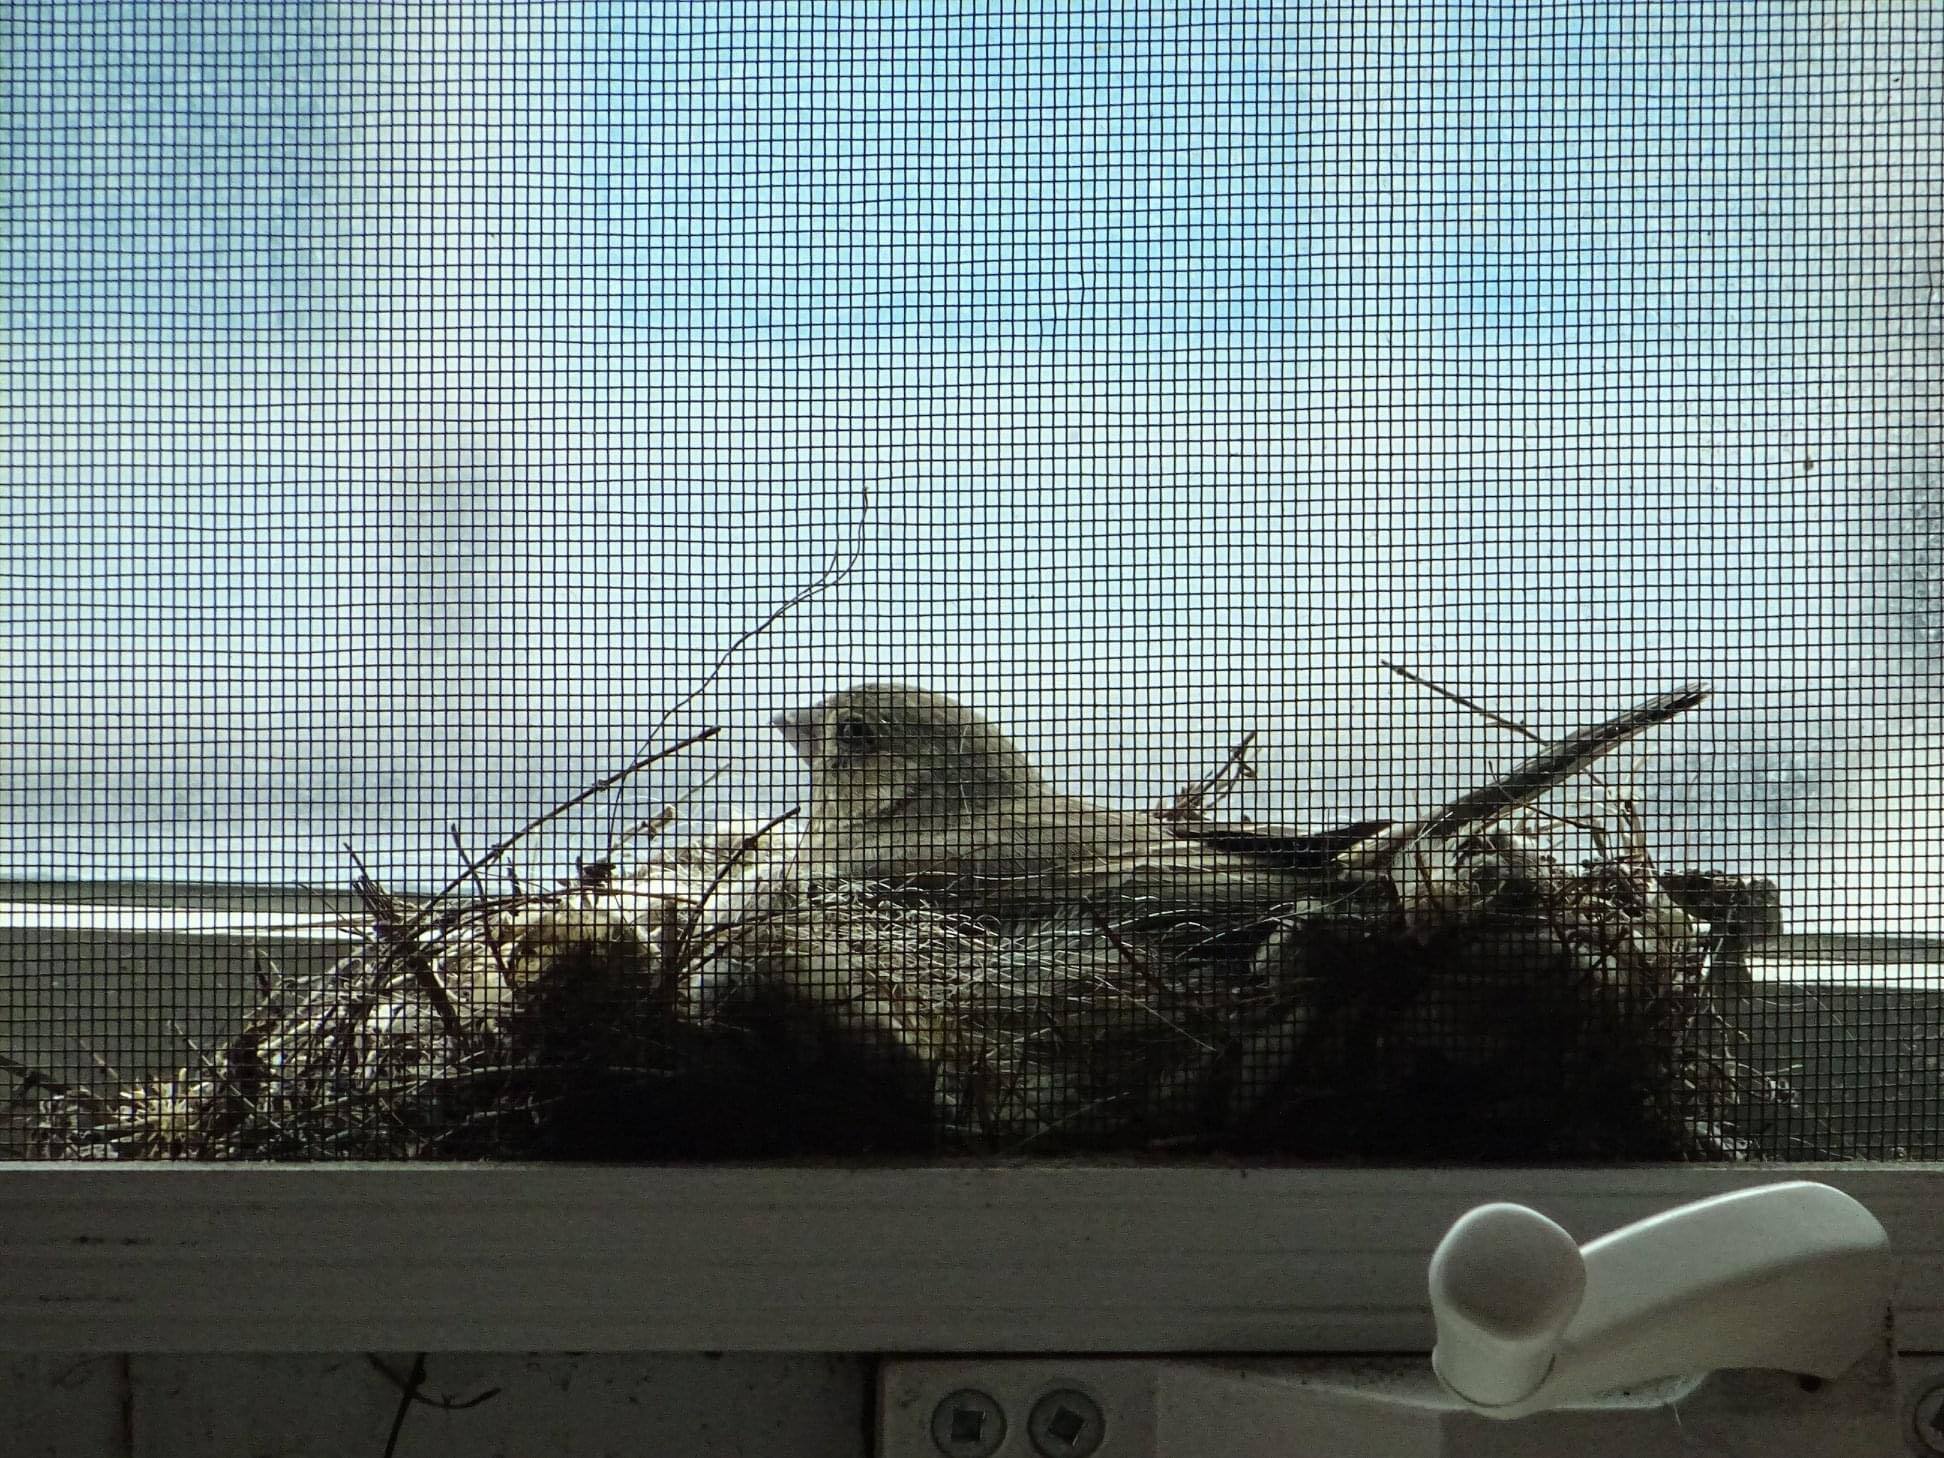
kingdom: Animalia
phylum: Chordata
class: Aves
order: Passeriformes
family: Fringillidae
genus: Haemorhous
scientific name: Haemorhous mexicanus
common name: House finch
